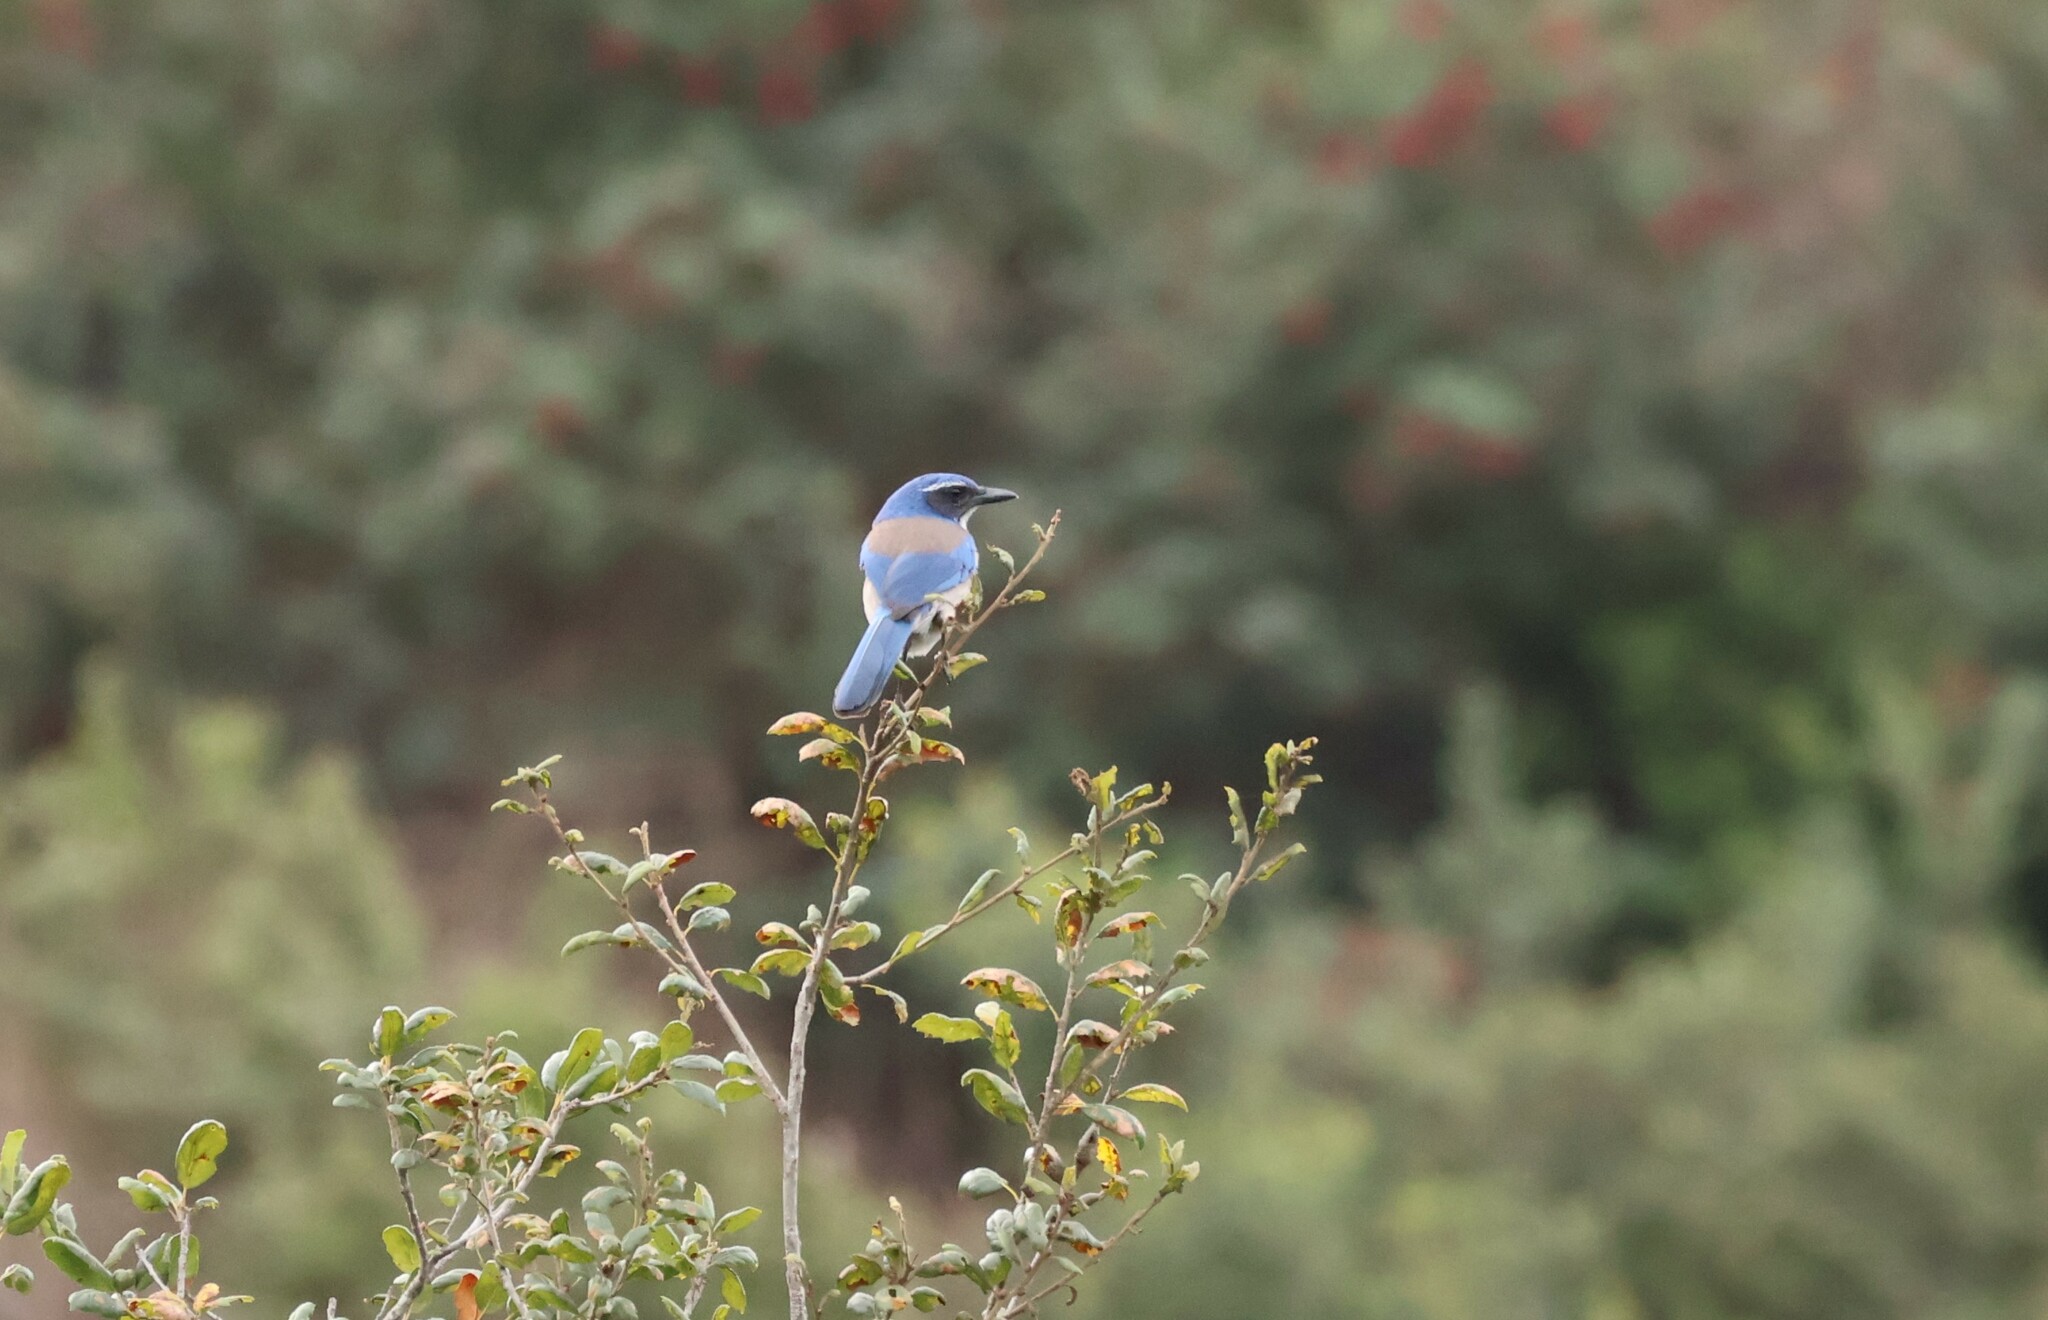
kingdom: Animalia
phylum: Chordata
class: Aves
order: Passeriformes
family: Corvidae
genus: Aphelocoma
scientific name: Aphelocoma californica
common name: California scrub-jay
